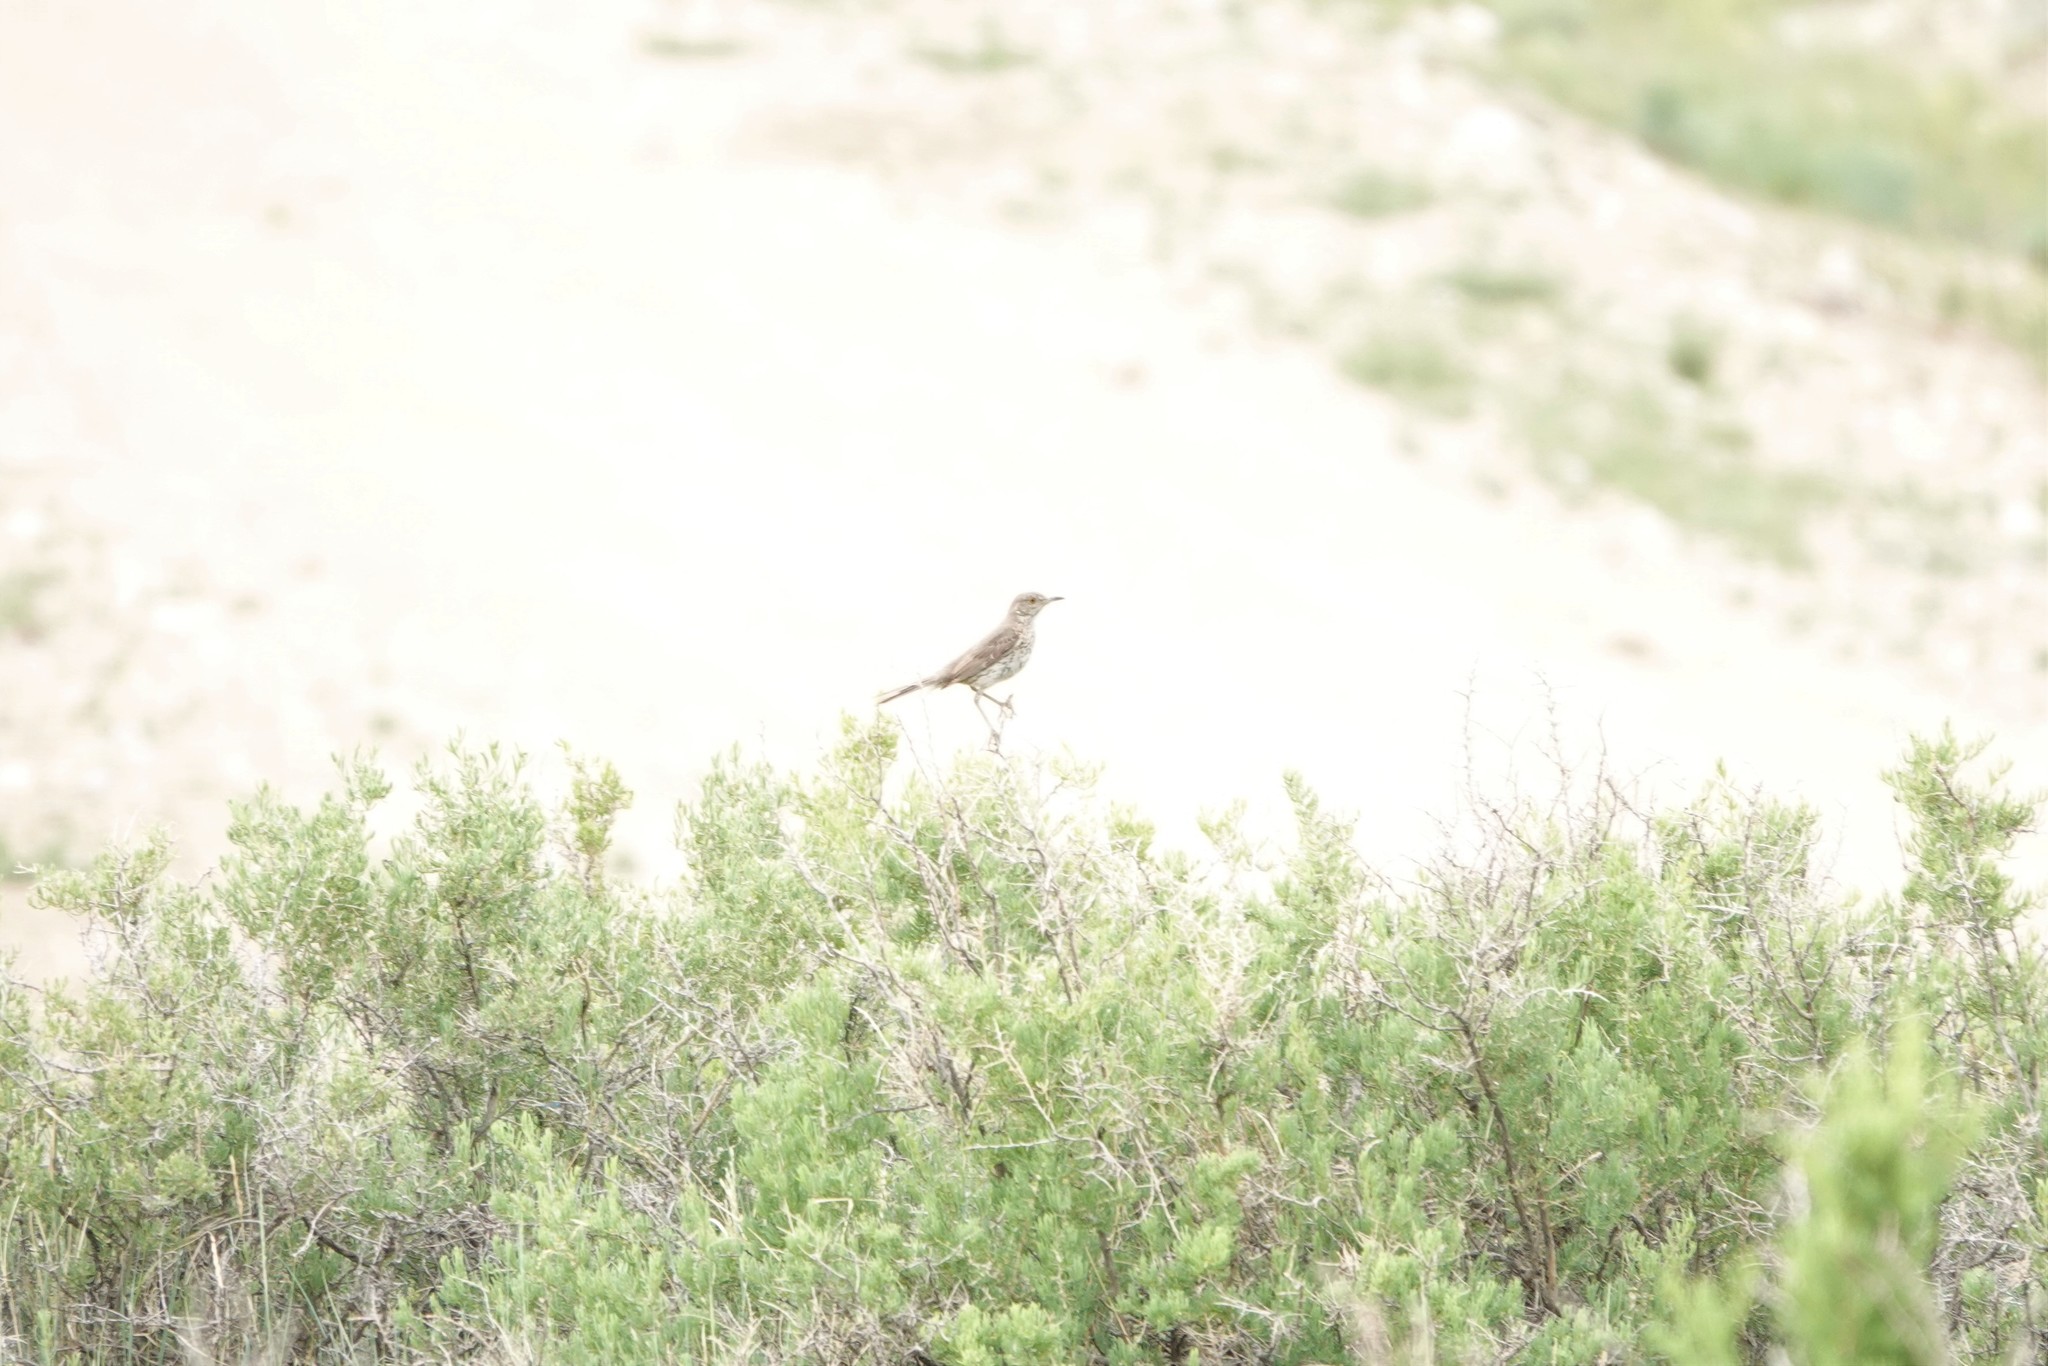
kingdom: Animalia
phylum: Chordata
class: Aves
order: Passeriformes
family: Mimidae
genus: Oreoscoptes
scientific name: Oreoscoptes montanus
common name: Sage thrasher
